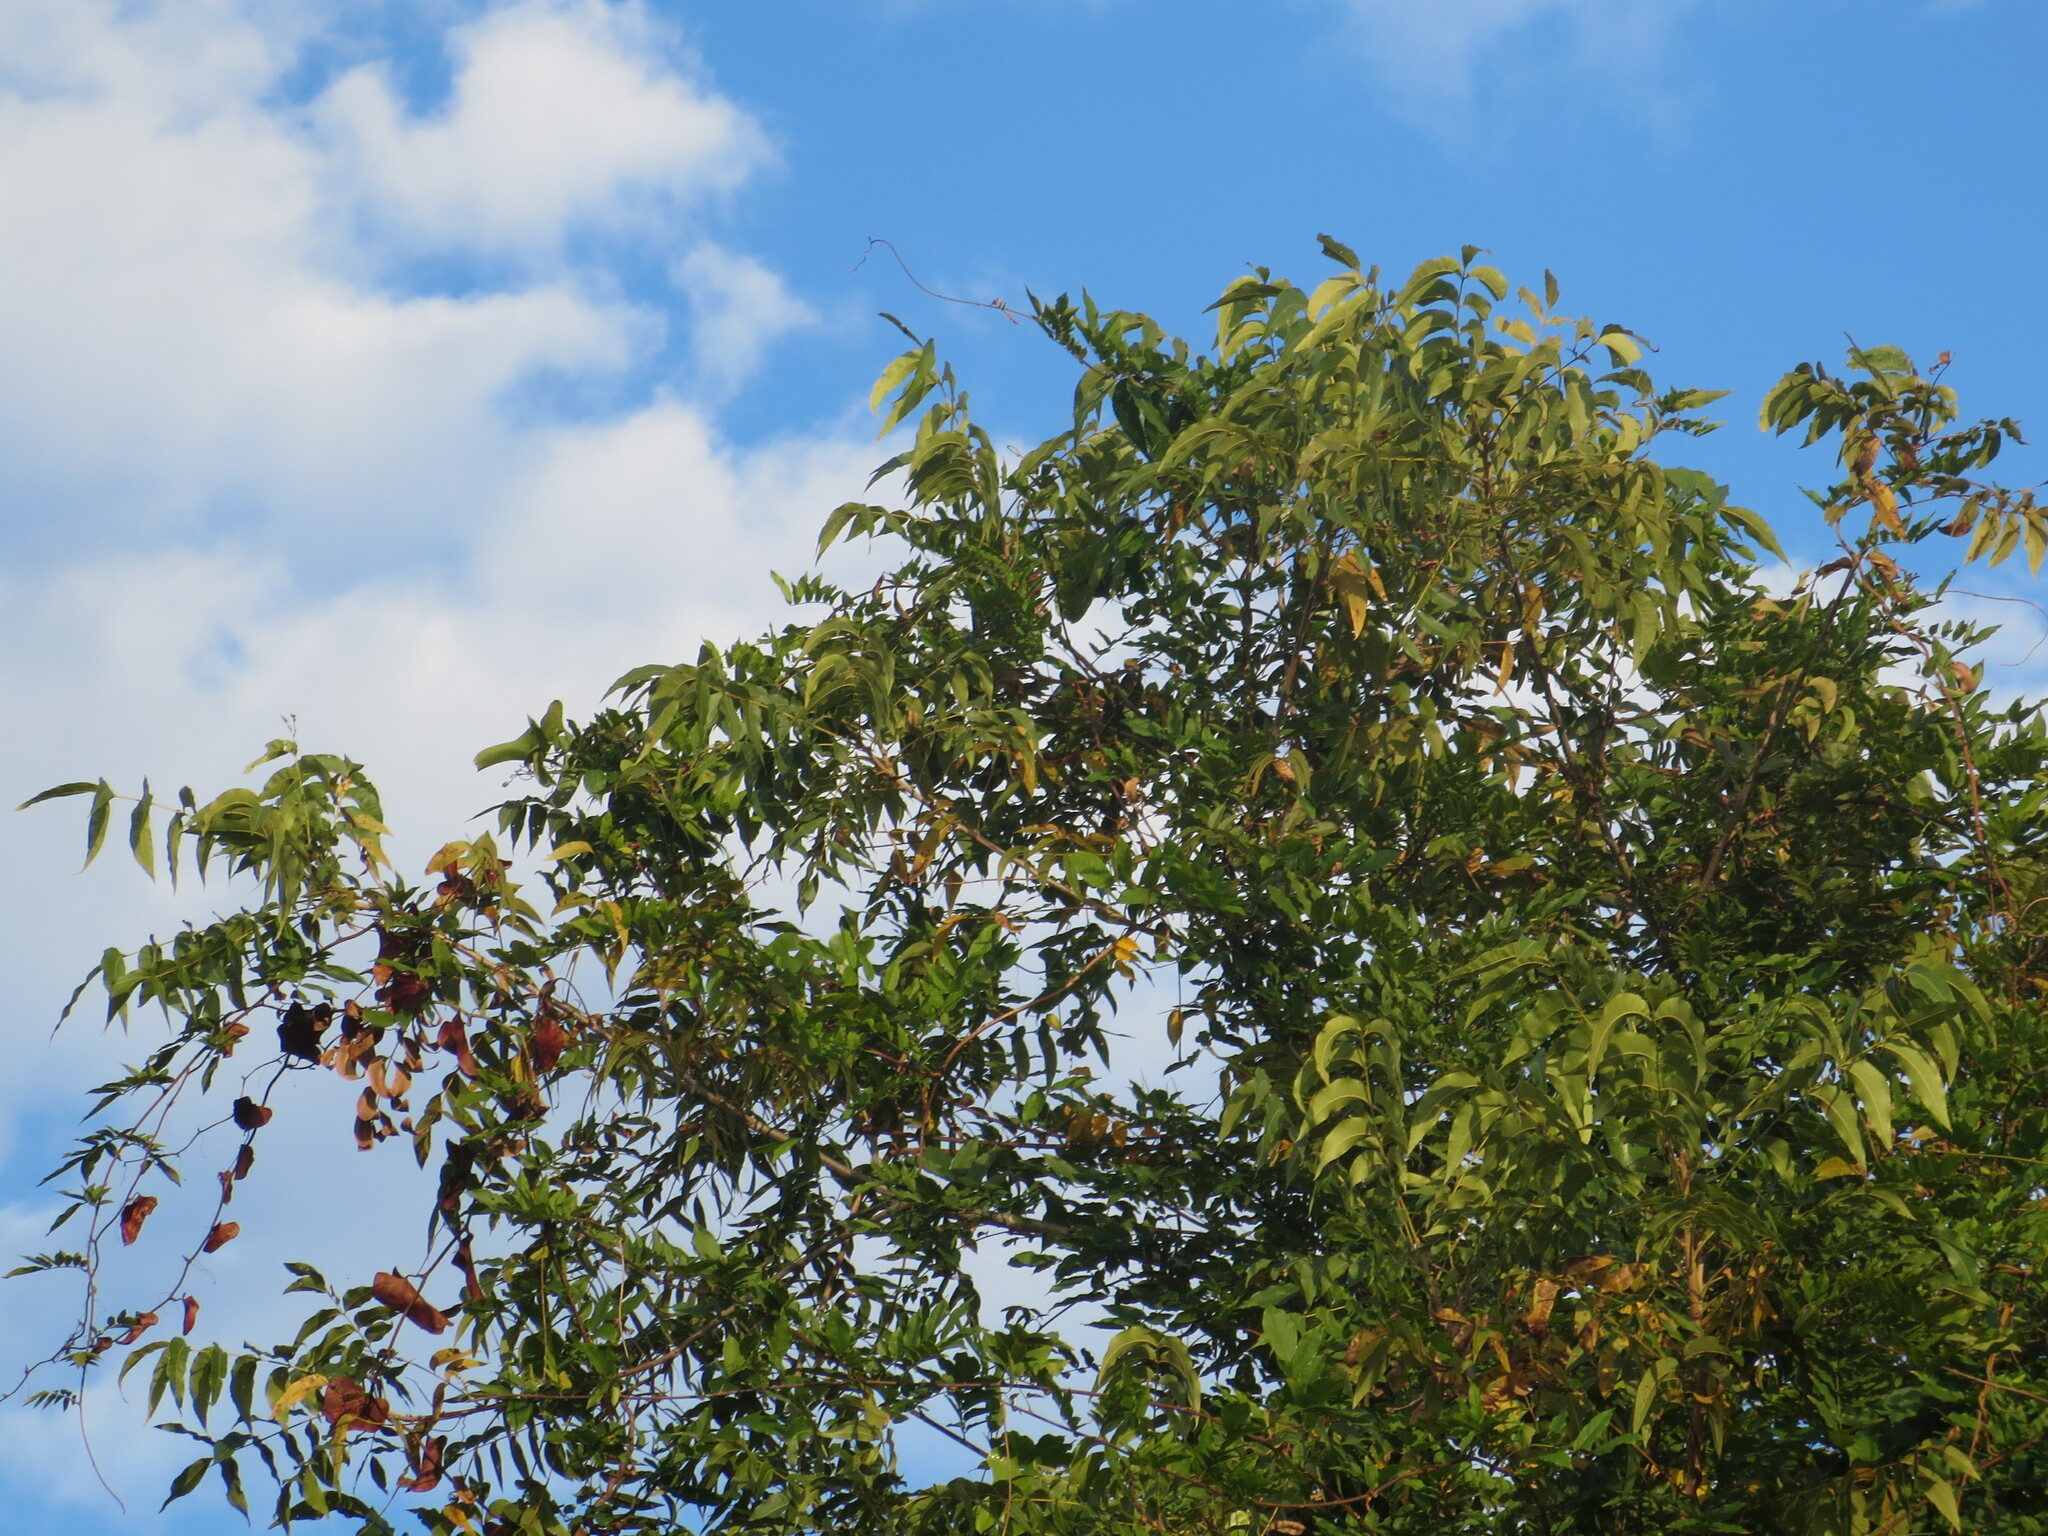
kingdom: Plantae
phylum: Tracheophyta
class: Magnoliopsida
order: Fagales
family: Juglandaceae
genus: Carya
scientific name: Carya illinoinensis
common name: Pecan
